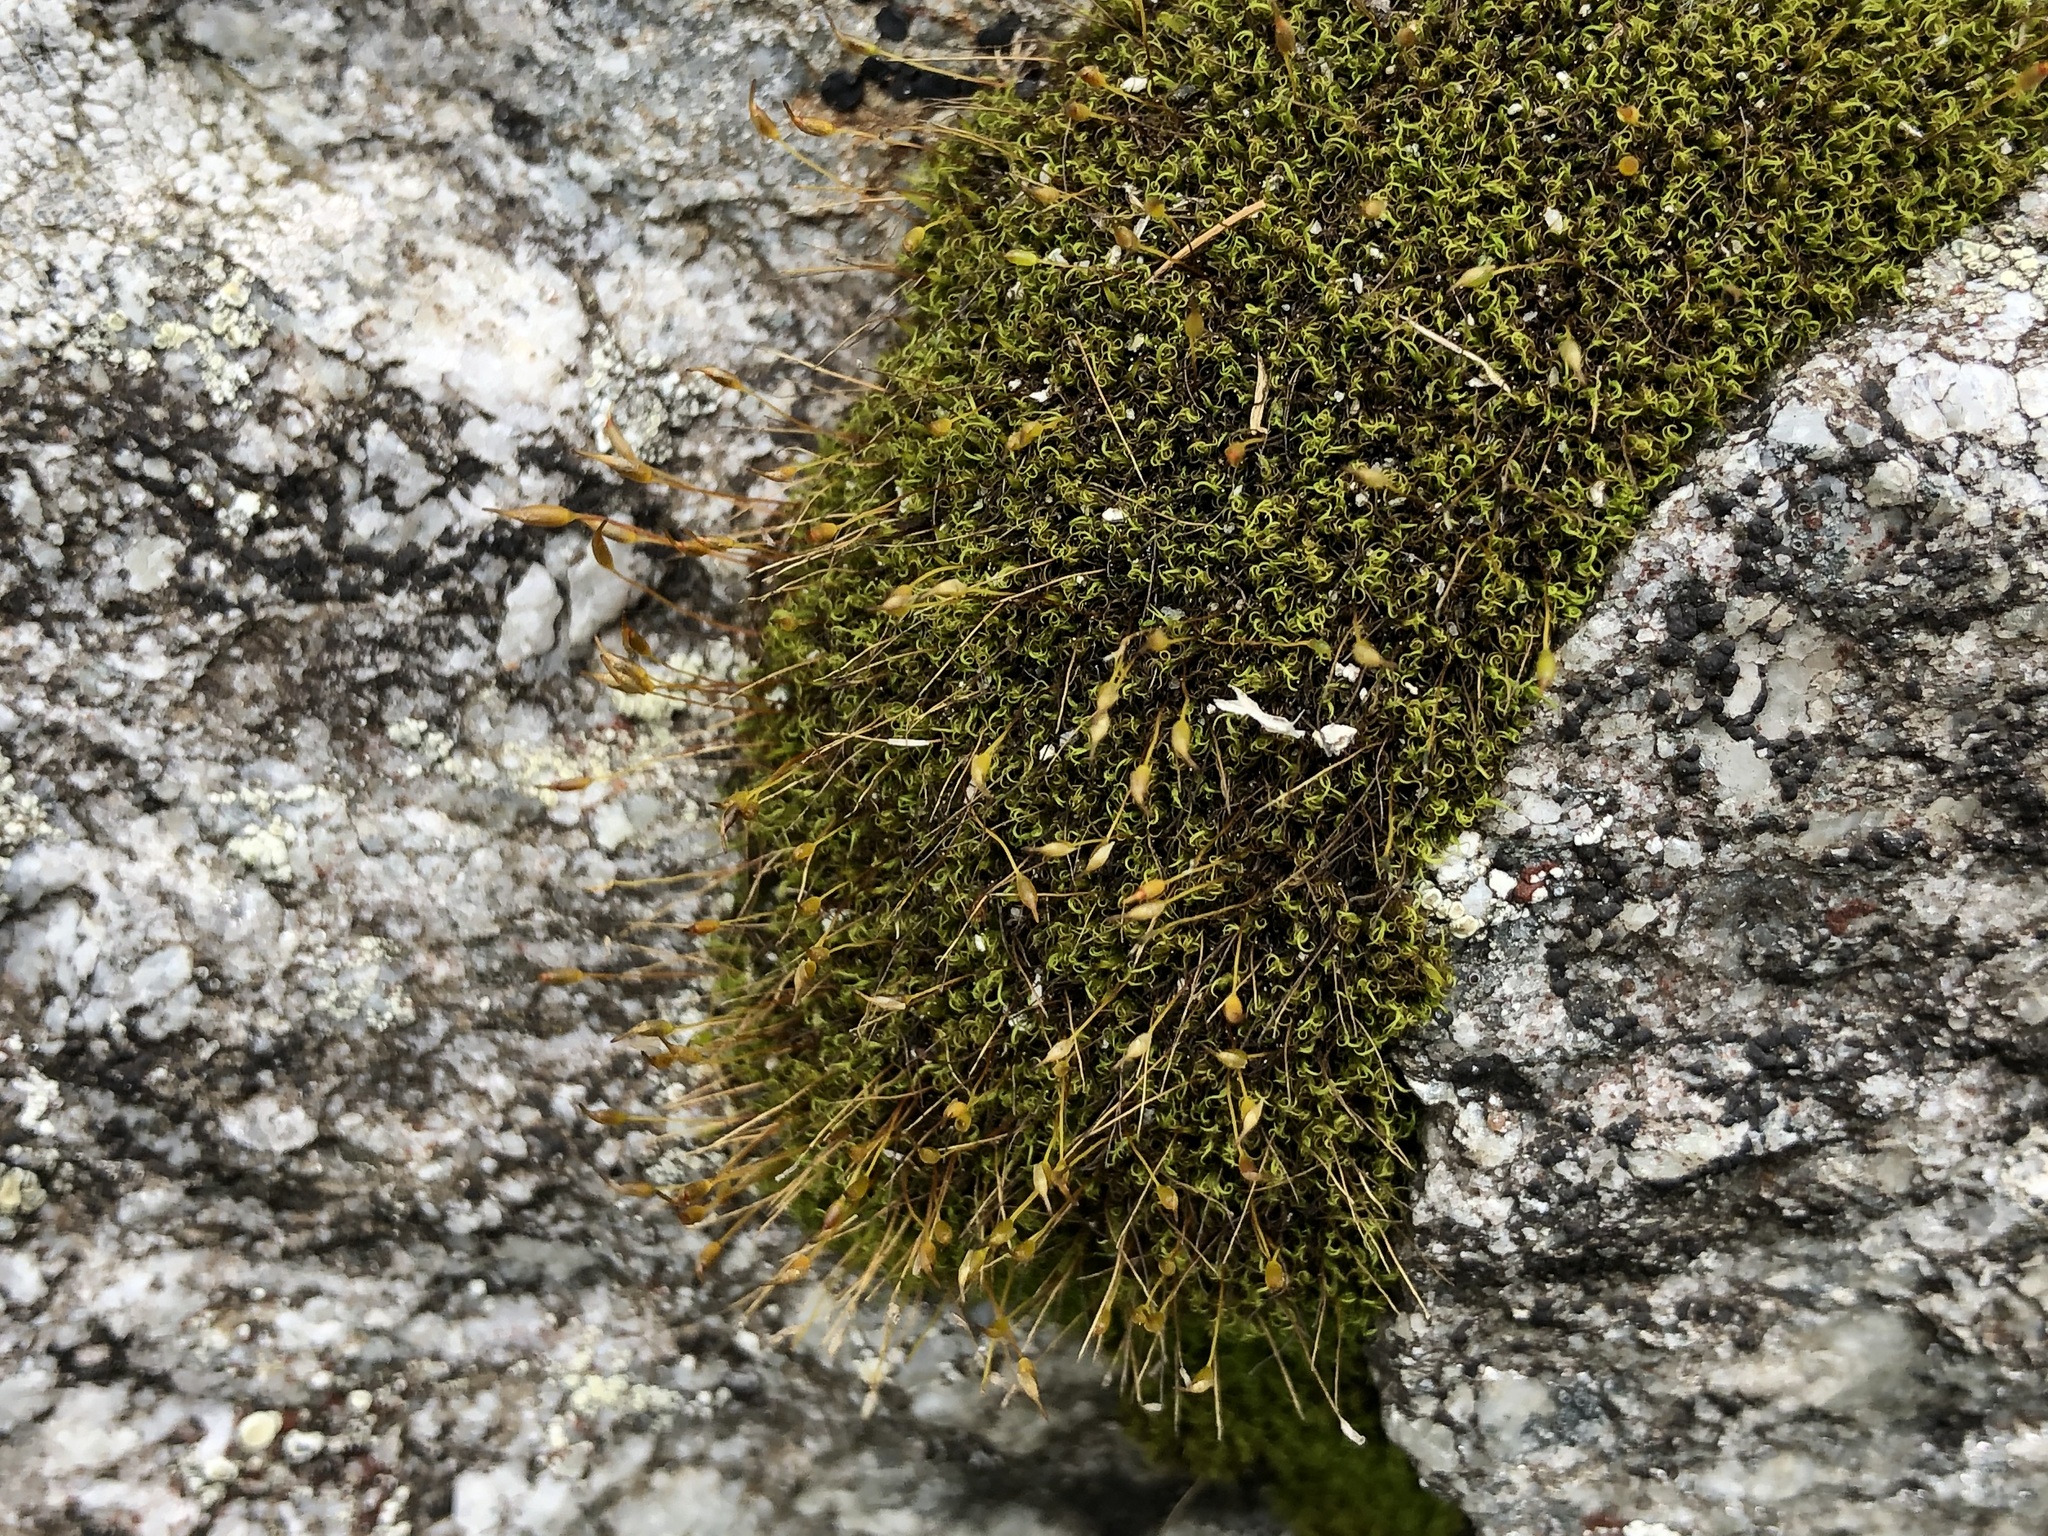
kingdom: Plantae
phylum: Bryophyta
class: Bryopsida
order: Scouleriales
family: Hymenolomataceae
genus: Hymenoloma
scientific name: Hymenoloma crispulum
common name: Mountain pincushion
